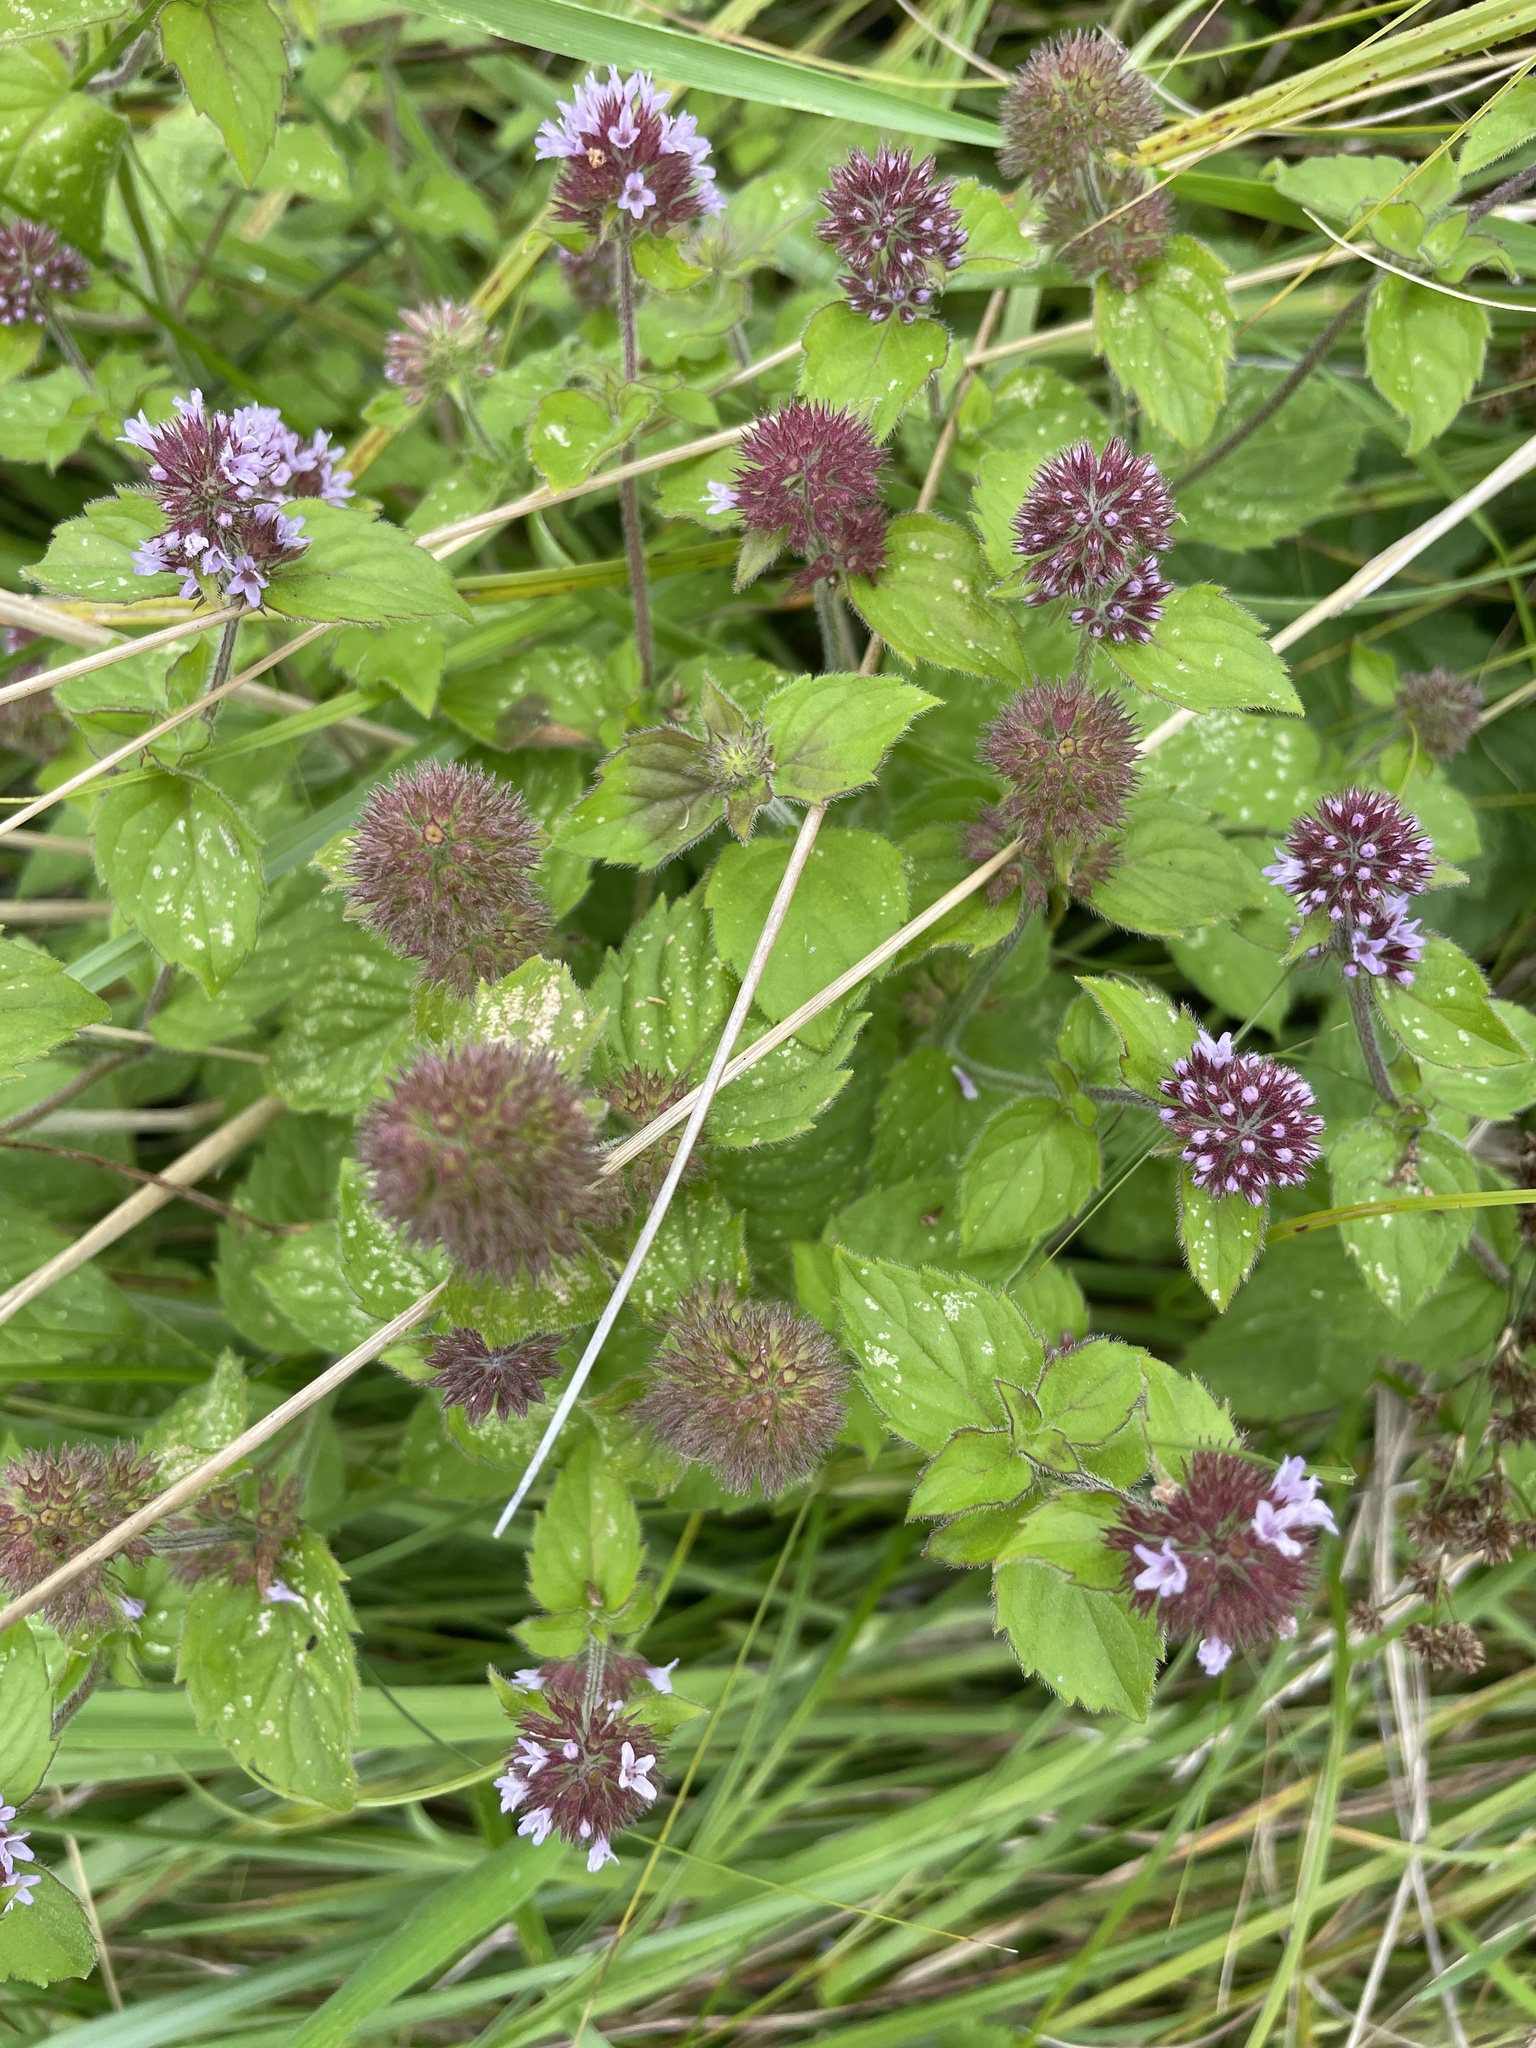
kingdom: Plantae
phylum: Tracheophyta
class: Magnoliopsida
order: Lamiales
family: Lamiaceae
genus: Mentha
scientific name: Mentha aquatica
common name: Water mint
